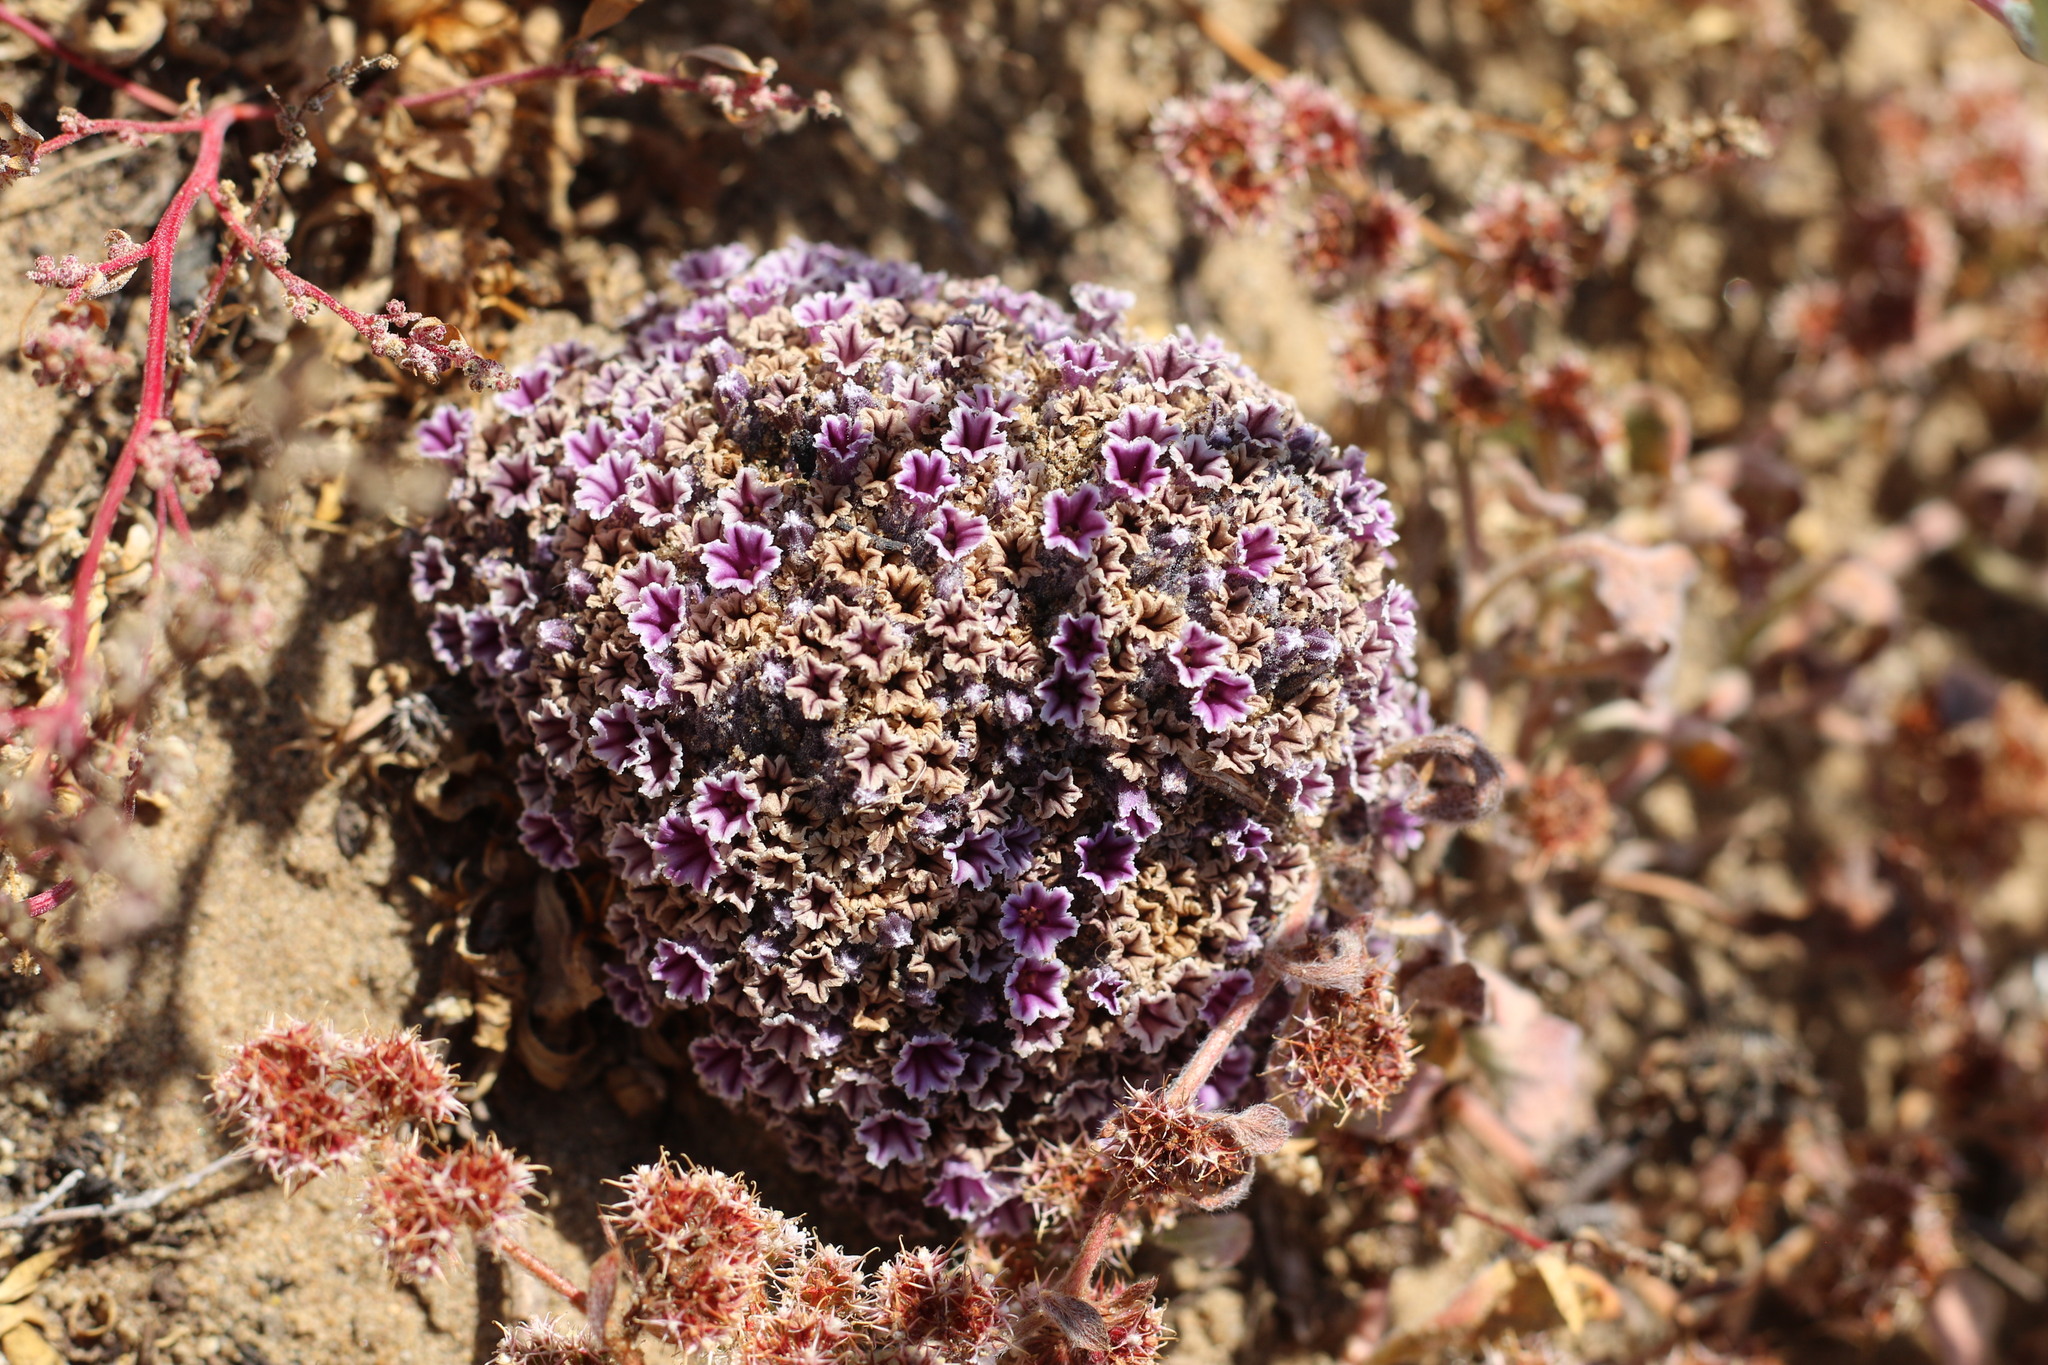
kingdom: Plantae
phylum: Tracheophyta
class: Magnoliopsida
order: Boraginales
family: Lennoaceae
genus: Pholisma
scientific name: Pholisma arenarium
